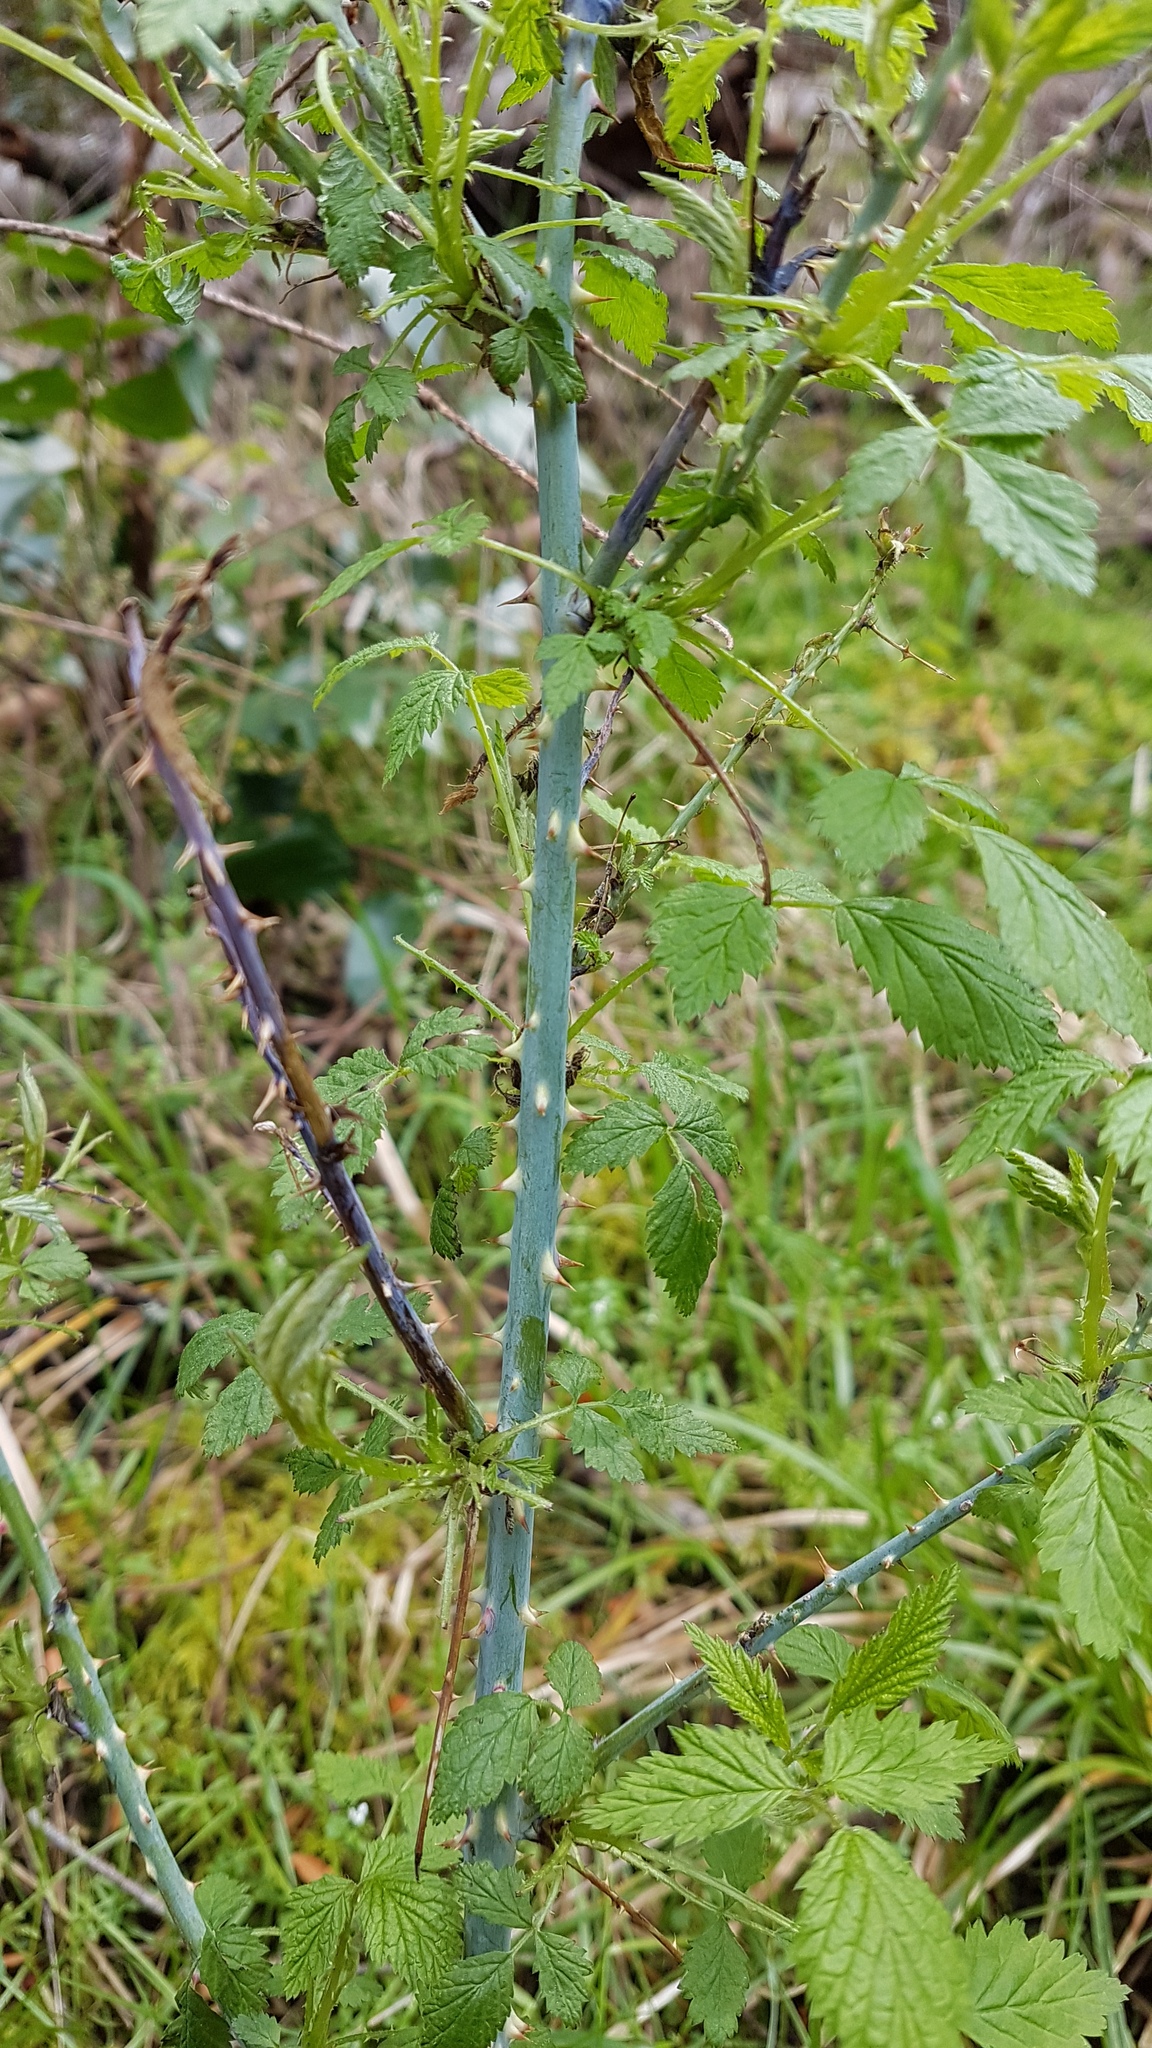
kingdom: Plantae
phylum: Tracheophyta
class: Magnoliopsida
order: Rosales
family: Rosaceae
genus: Rubus
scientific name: Rubus leucodermis
